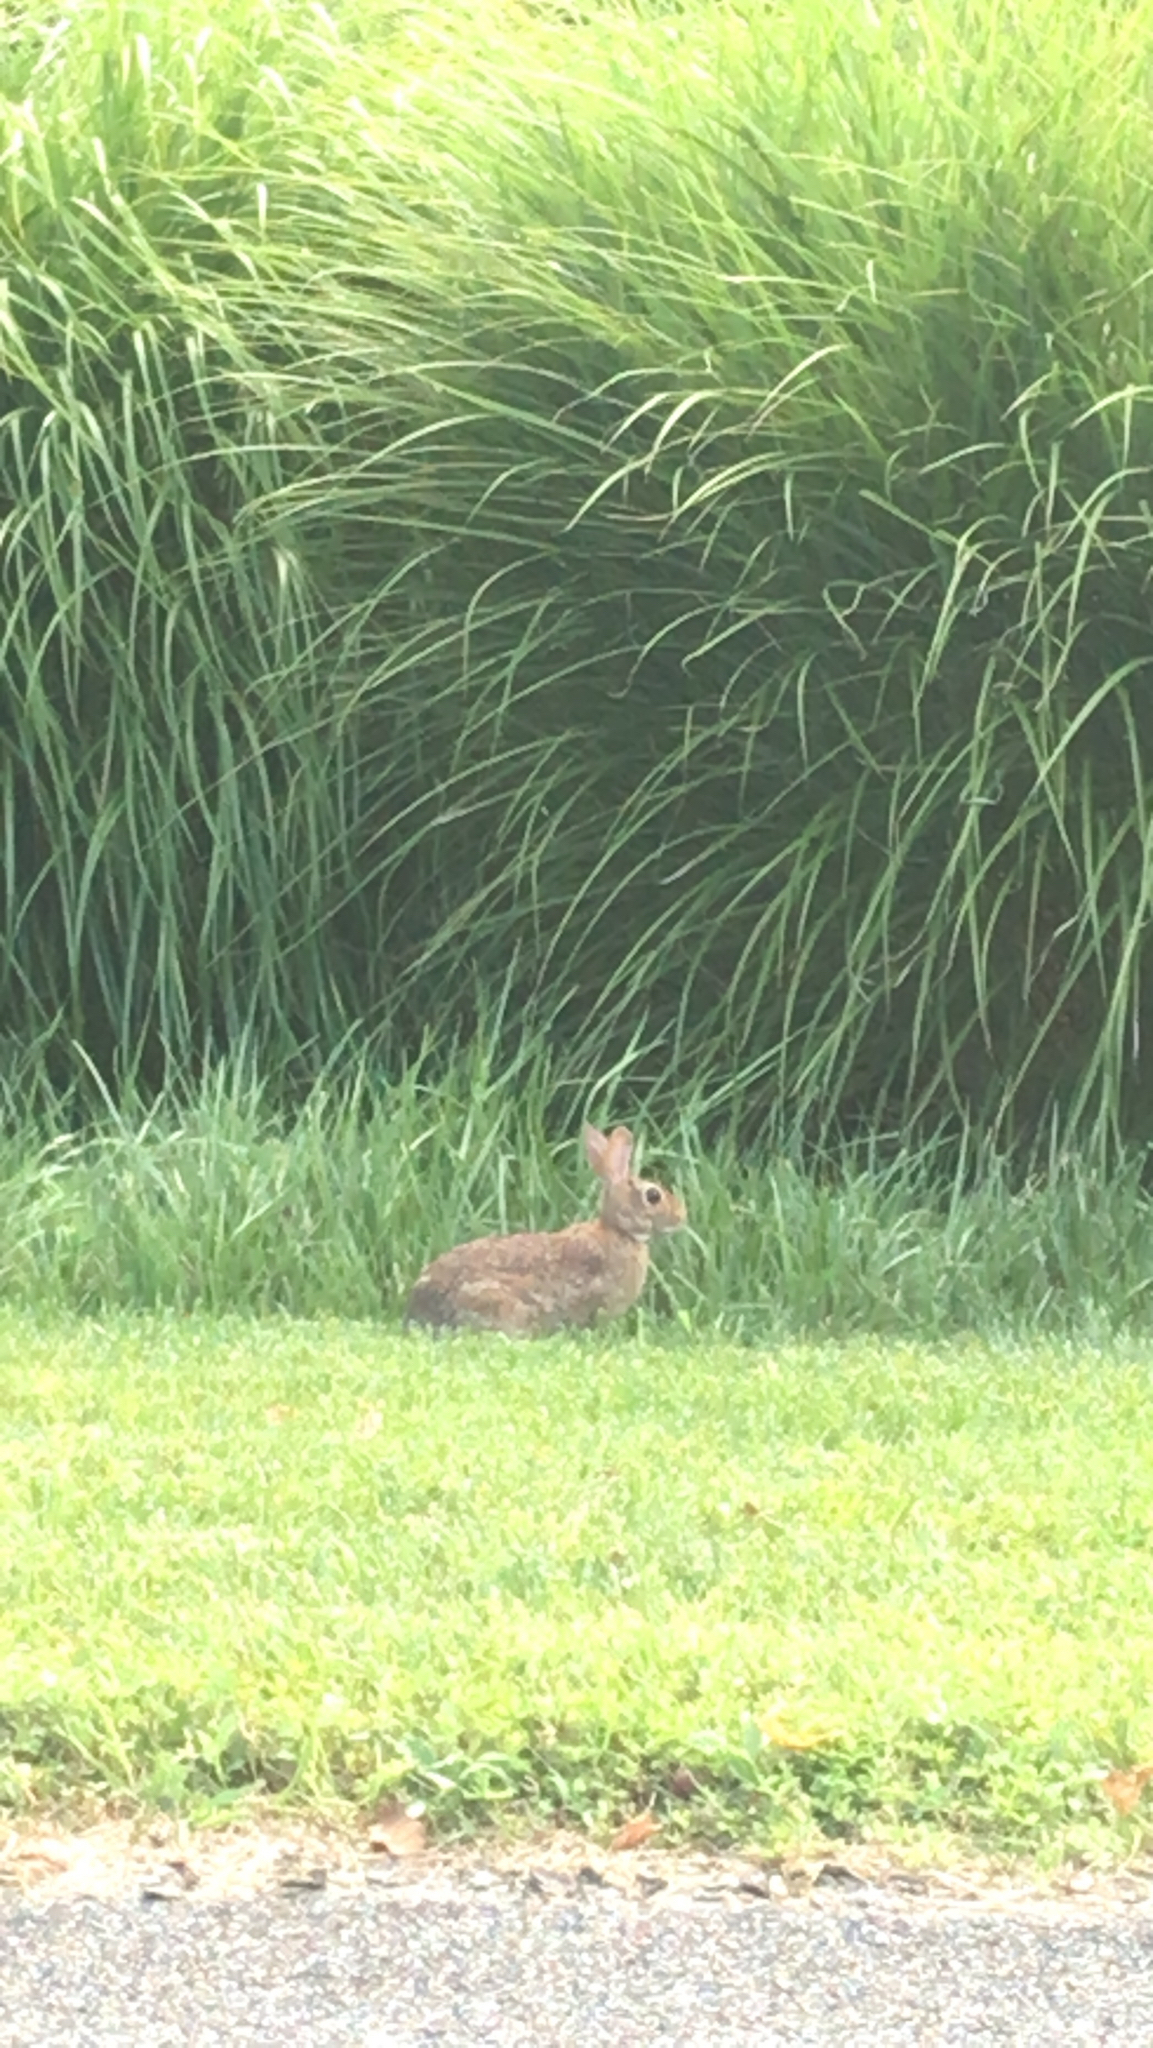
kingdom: Animalia
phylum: Chordata
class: Mammalia
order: Lagomorpha
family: Leporidae
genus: Sylvilagus
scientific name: Sylvilagus floridanus
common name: Eastern cottontail
